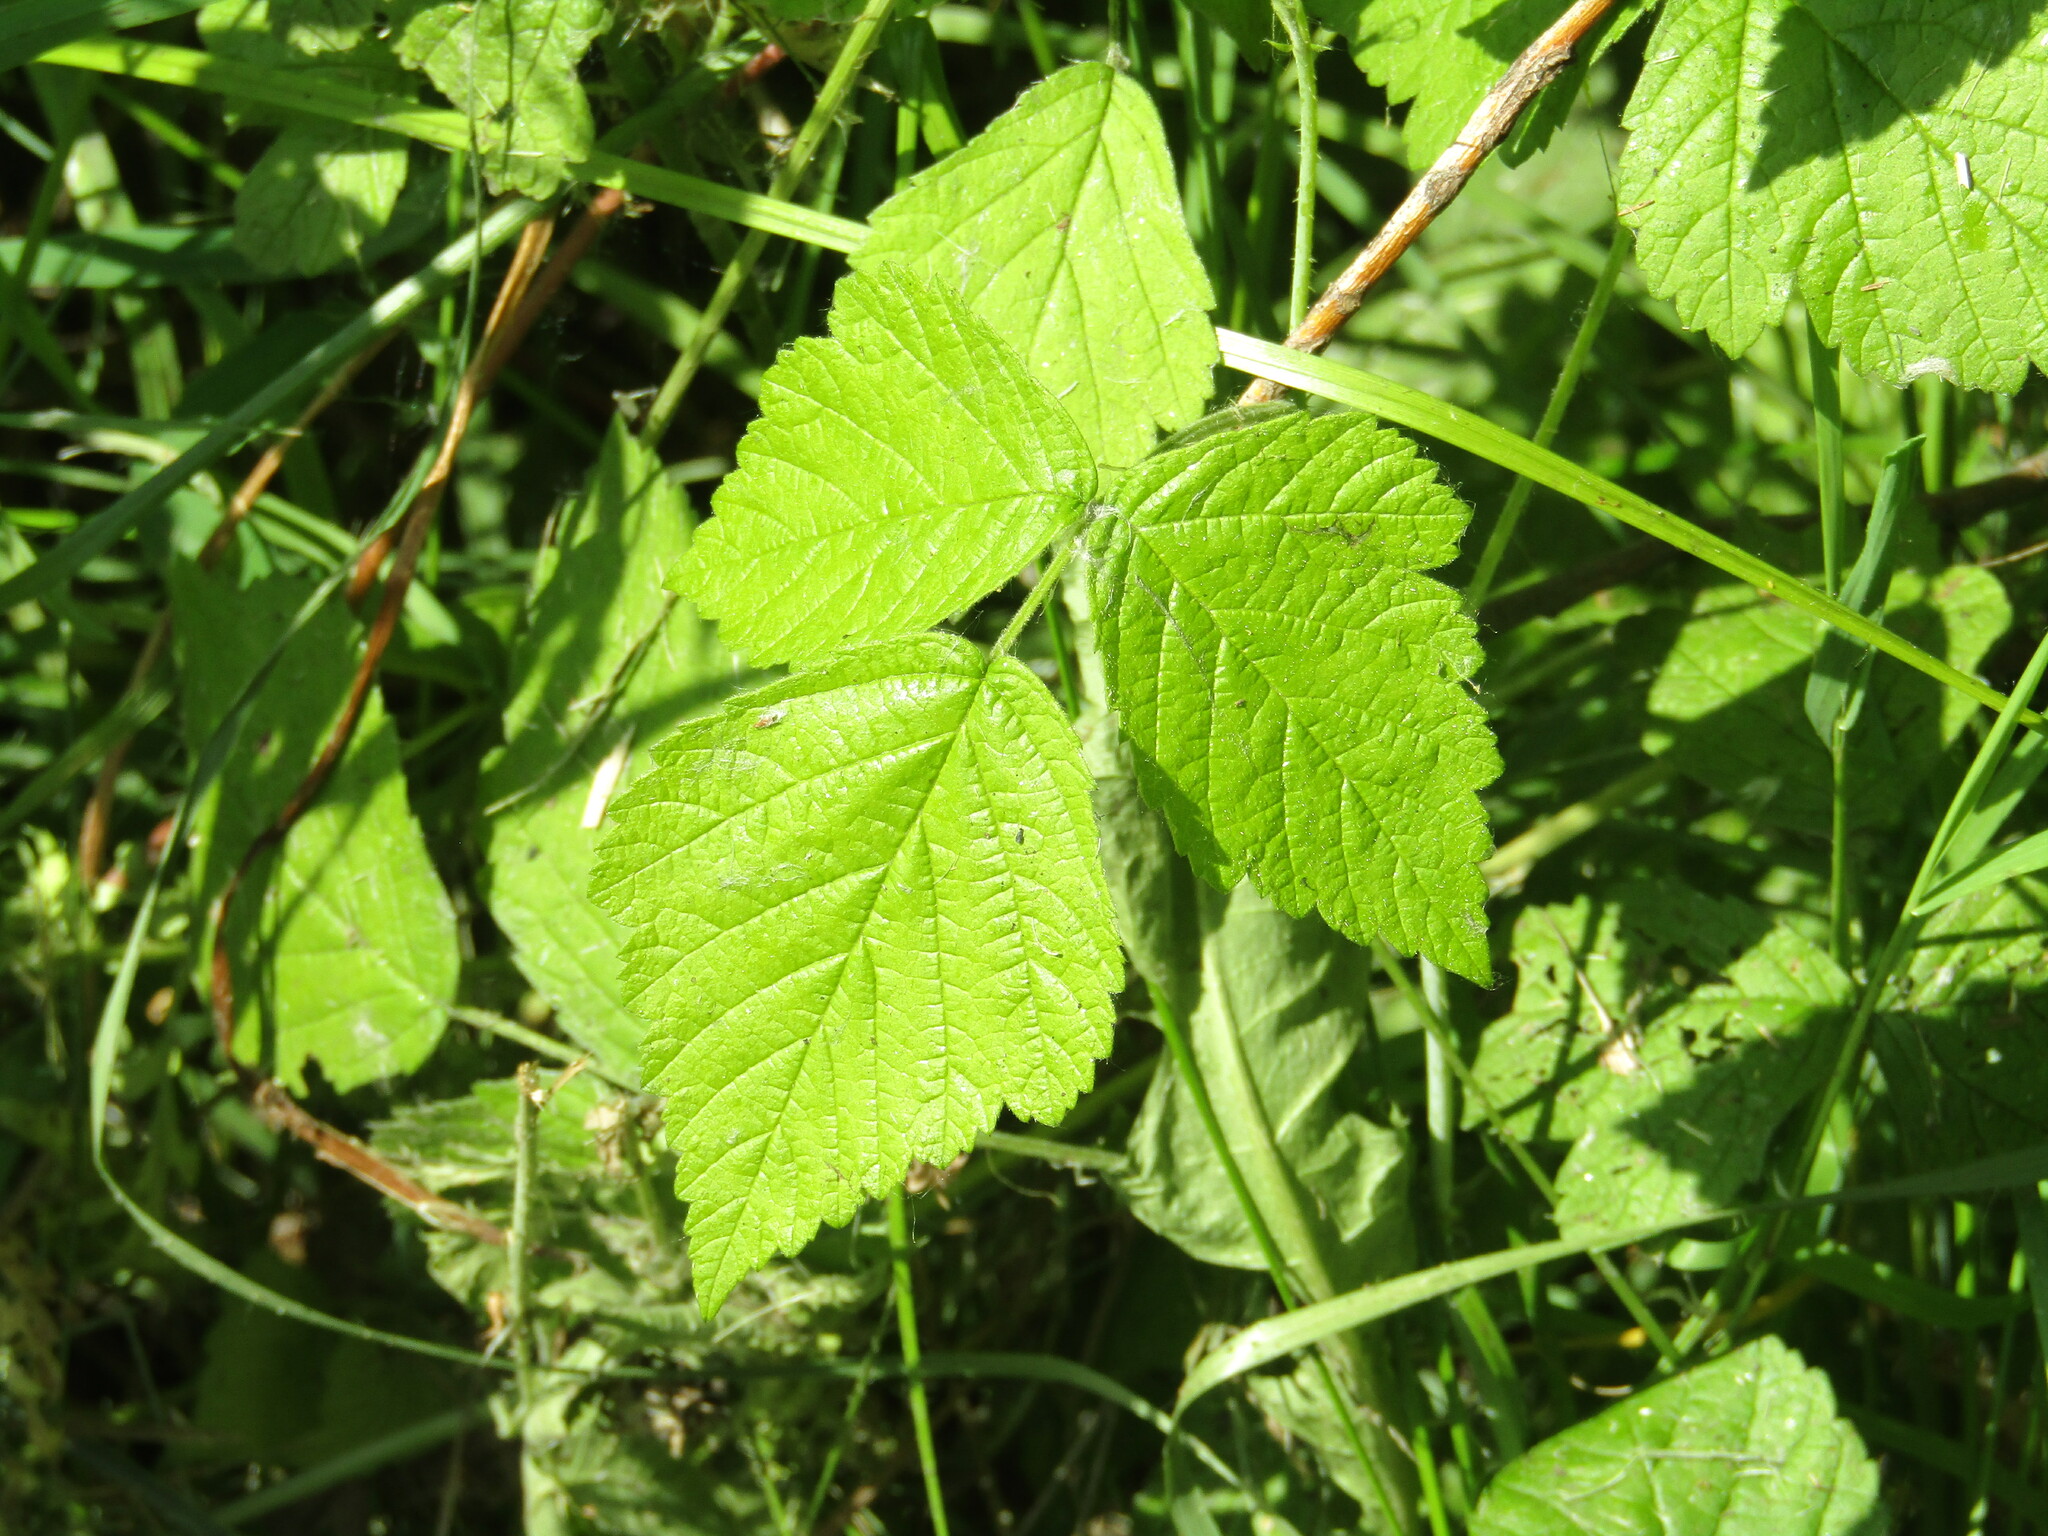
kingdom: Plantae
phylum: Tracheophyta
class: Magnoliopsida
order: Rosales
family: Rosaceae
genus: Rubus
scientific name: Rubus caesius
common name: Dewberry
